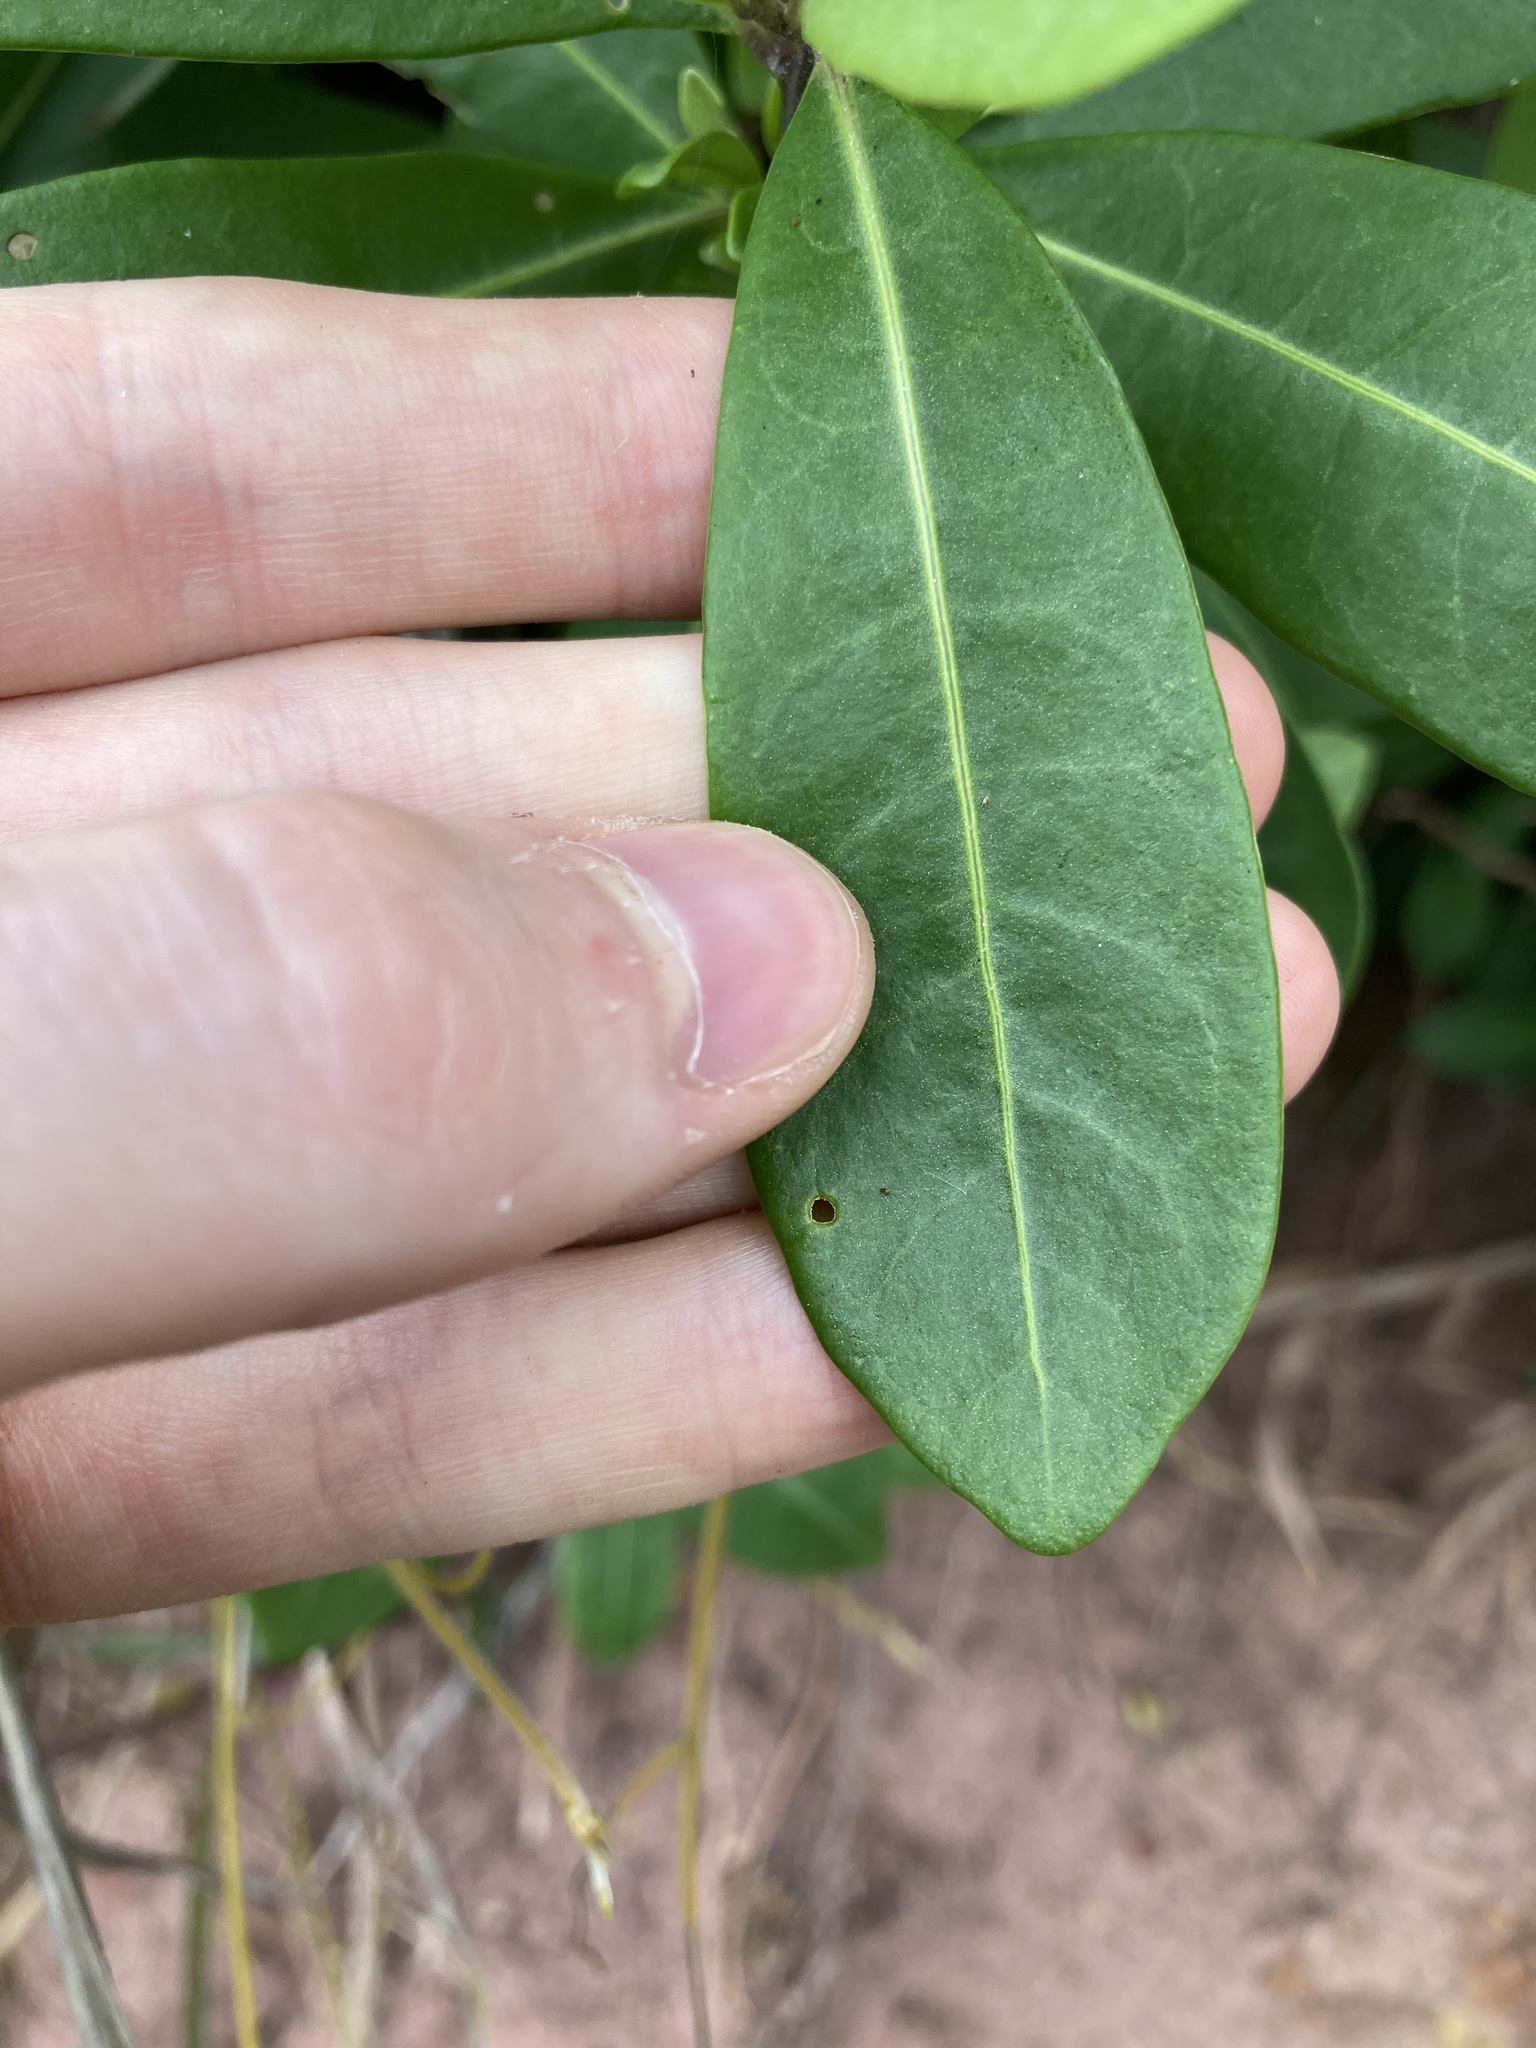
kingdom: Plantae
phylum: Tracheophyta
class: Magnoliopsida
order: Solanales
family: Solanaceae
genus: Duboisia
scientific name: Duboisia myoporoides
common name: Corkwoodtree
